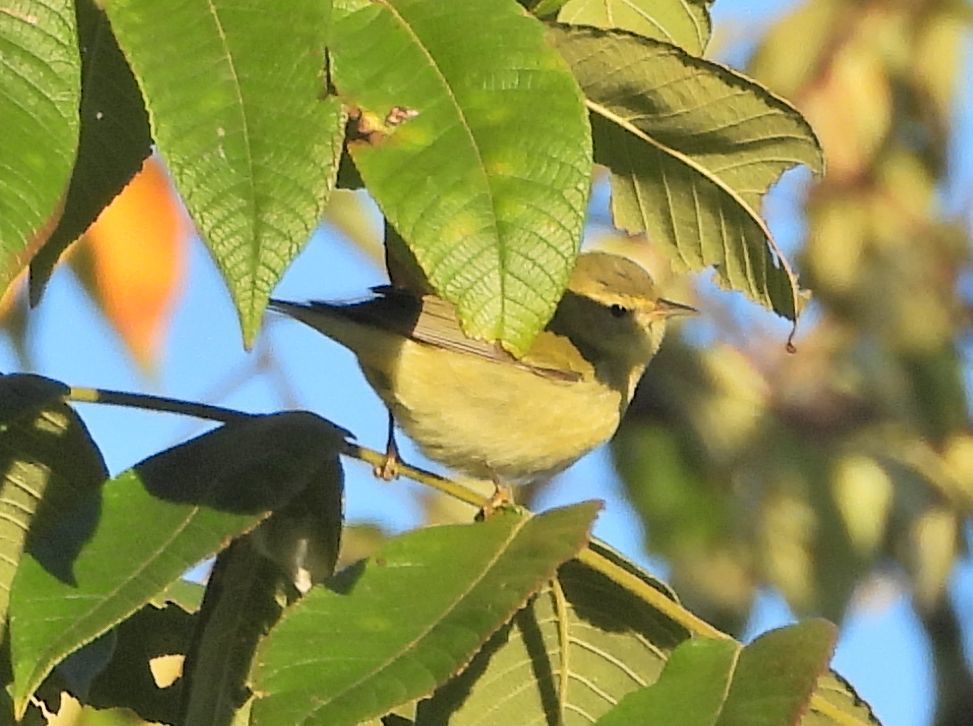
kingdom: Animalia
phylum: Chordata
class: Aves
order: Passeriformes
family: Parulidae
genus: Leiothlypis
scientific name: Leiothlypis peregrina
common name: Tennessee warbler
